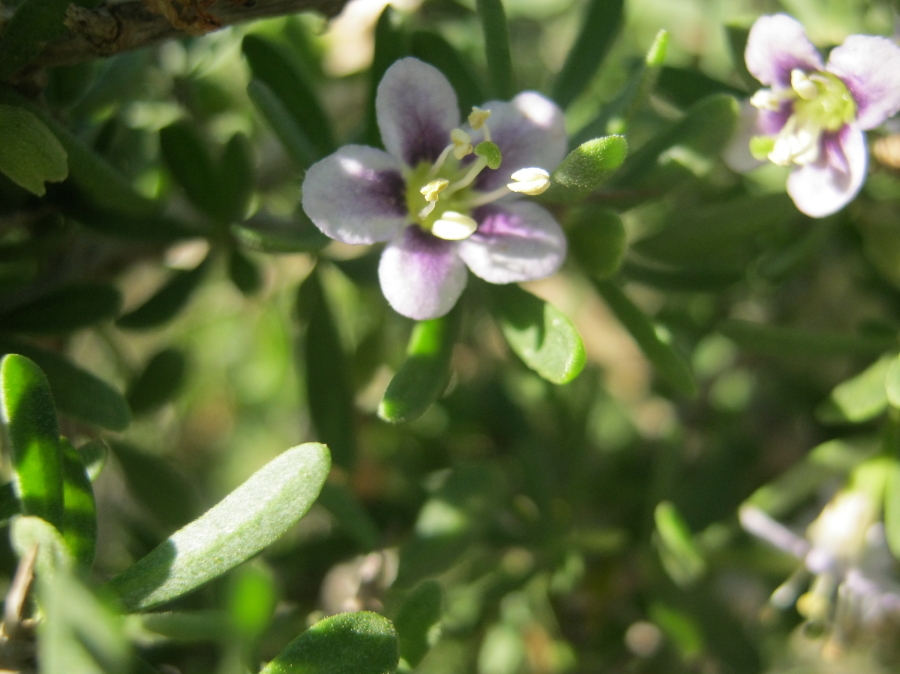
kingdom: Plantae
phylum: Tracheophyta
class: Magnoliopsida
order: Solanales
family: Solanaceae
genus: Lycium
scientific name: Lycium ferocissimum
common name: African boxthorn
